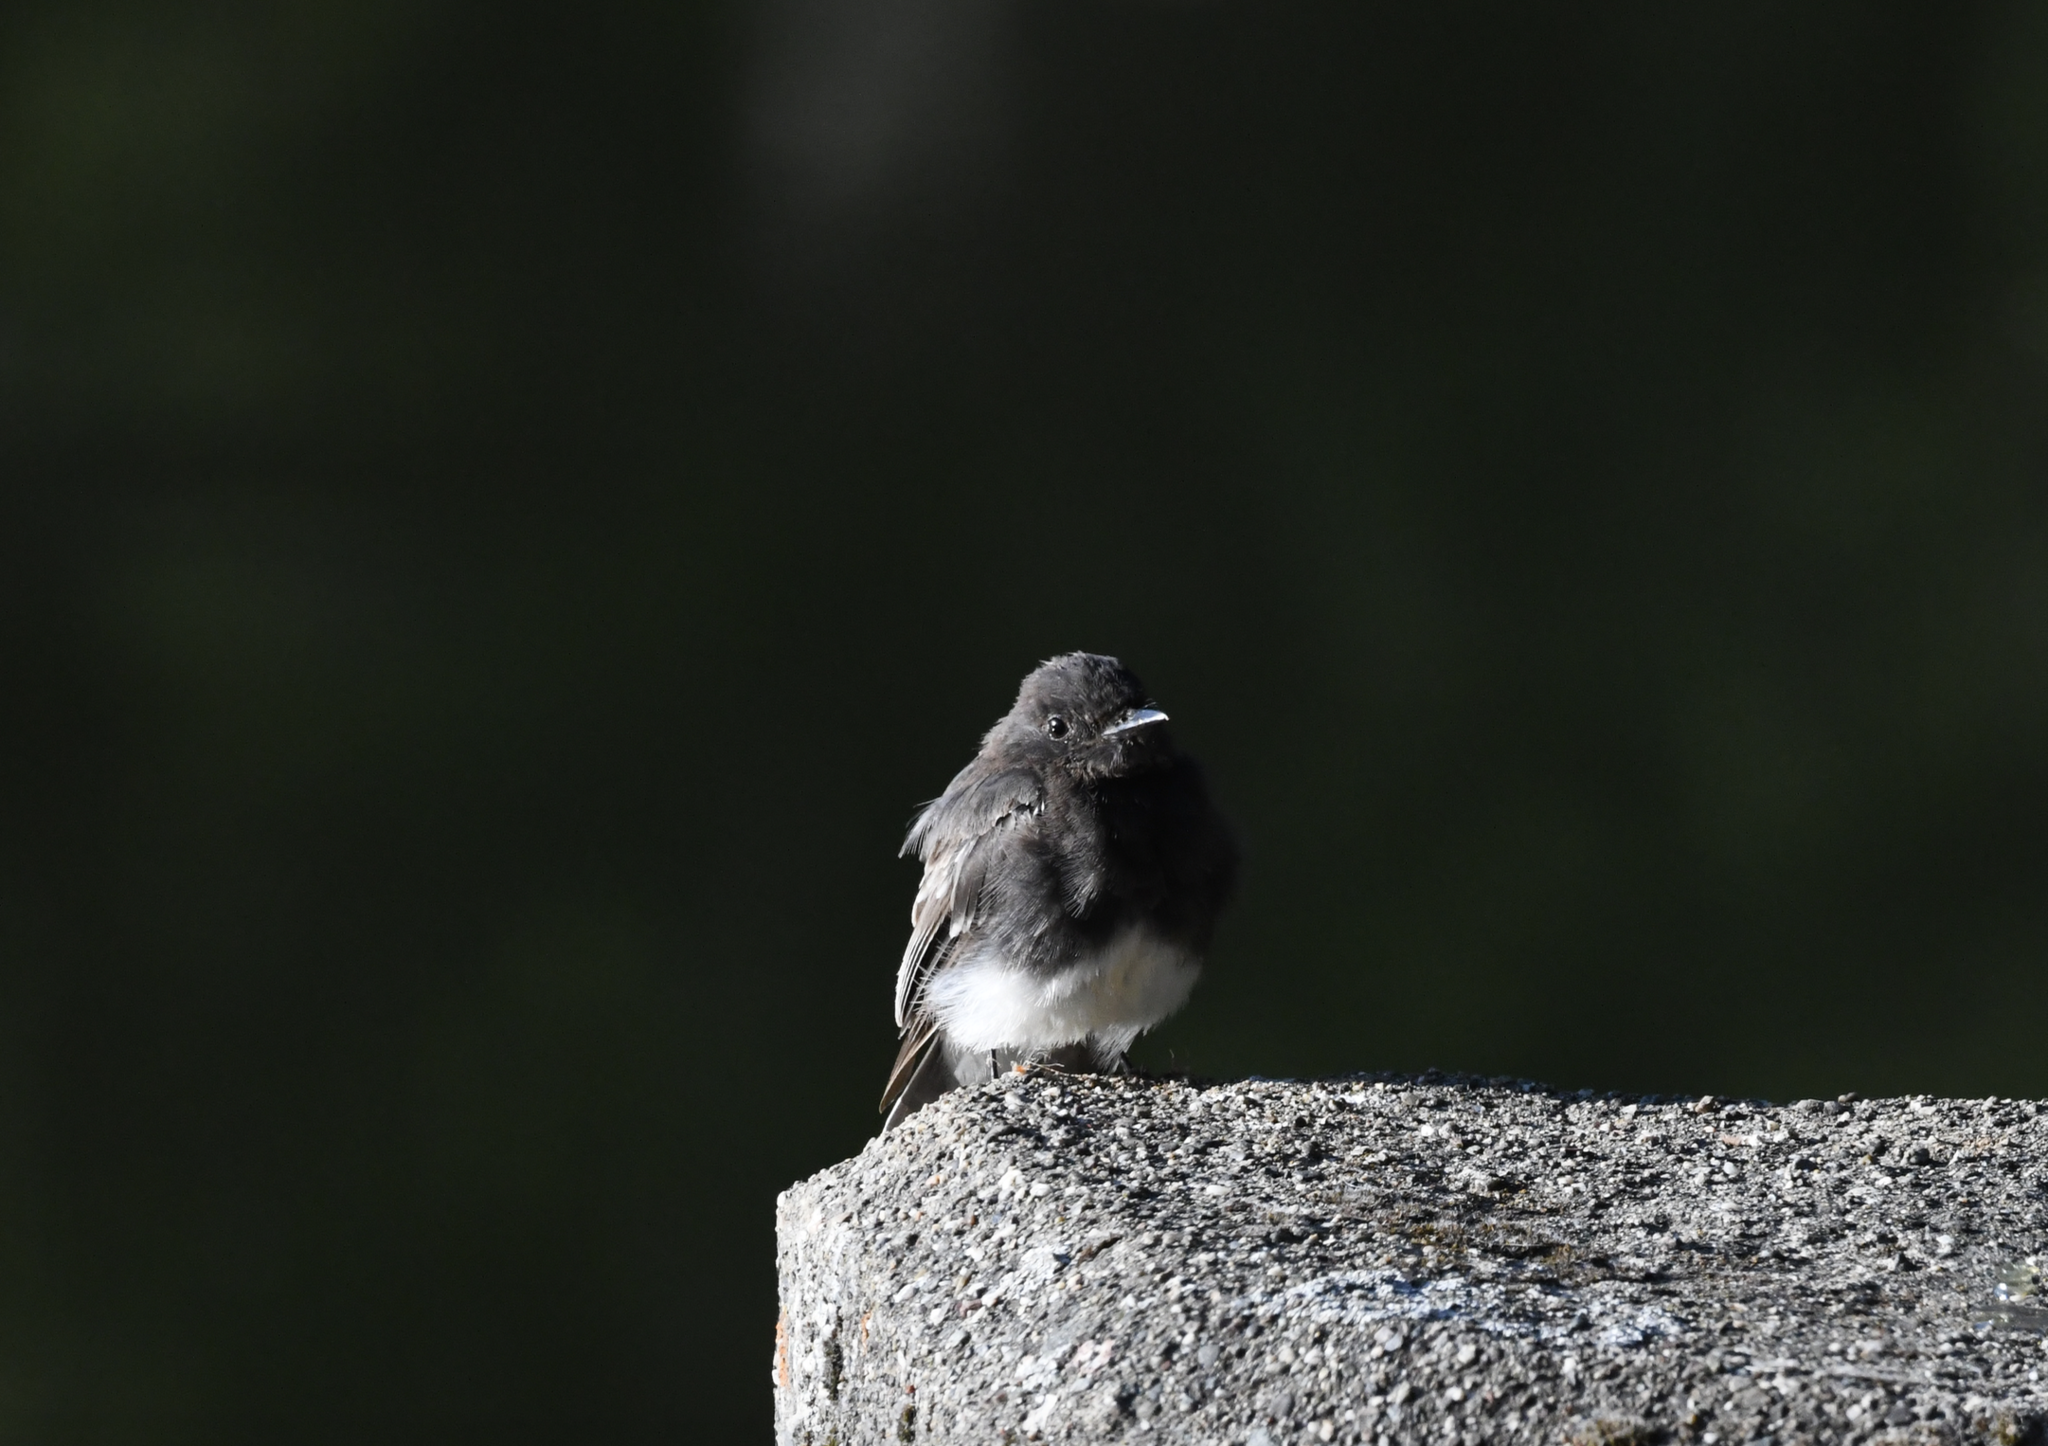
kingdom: Animalia
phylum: Chordata
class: Aves
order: Passeriformes
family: Tyrannidae
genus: Sayornis
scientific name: Sayornis nigricans
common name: Black phoebe
